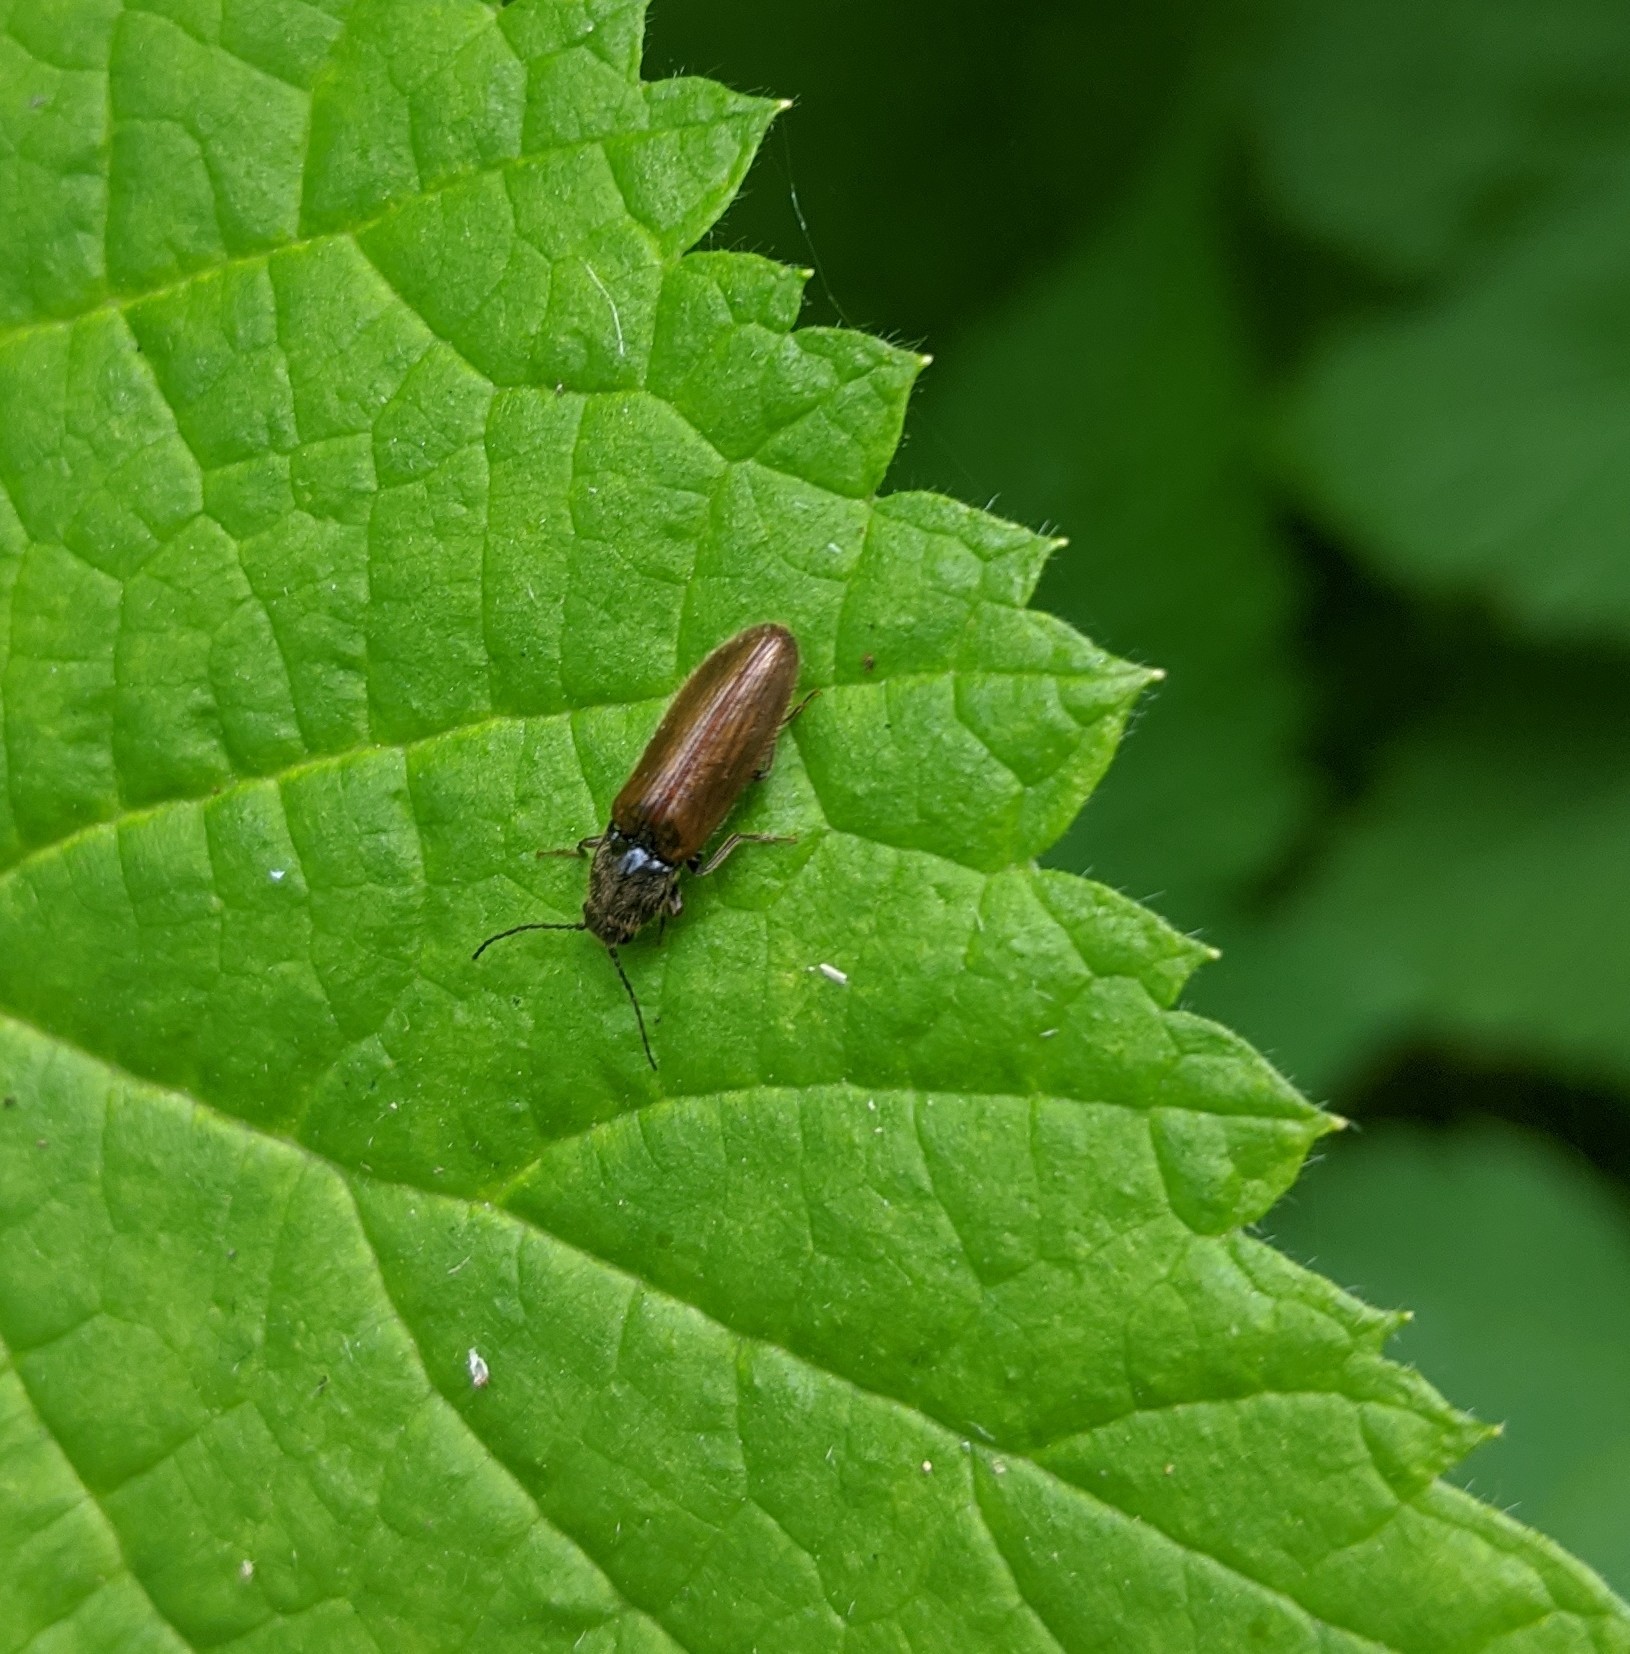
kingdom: Animalia
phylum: Arthropoda
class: Insecta
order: Coleoptera
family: Elateridae
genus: Hemicrepidius
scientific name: Hemicrepidius pallidipennis
